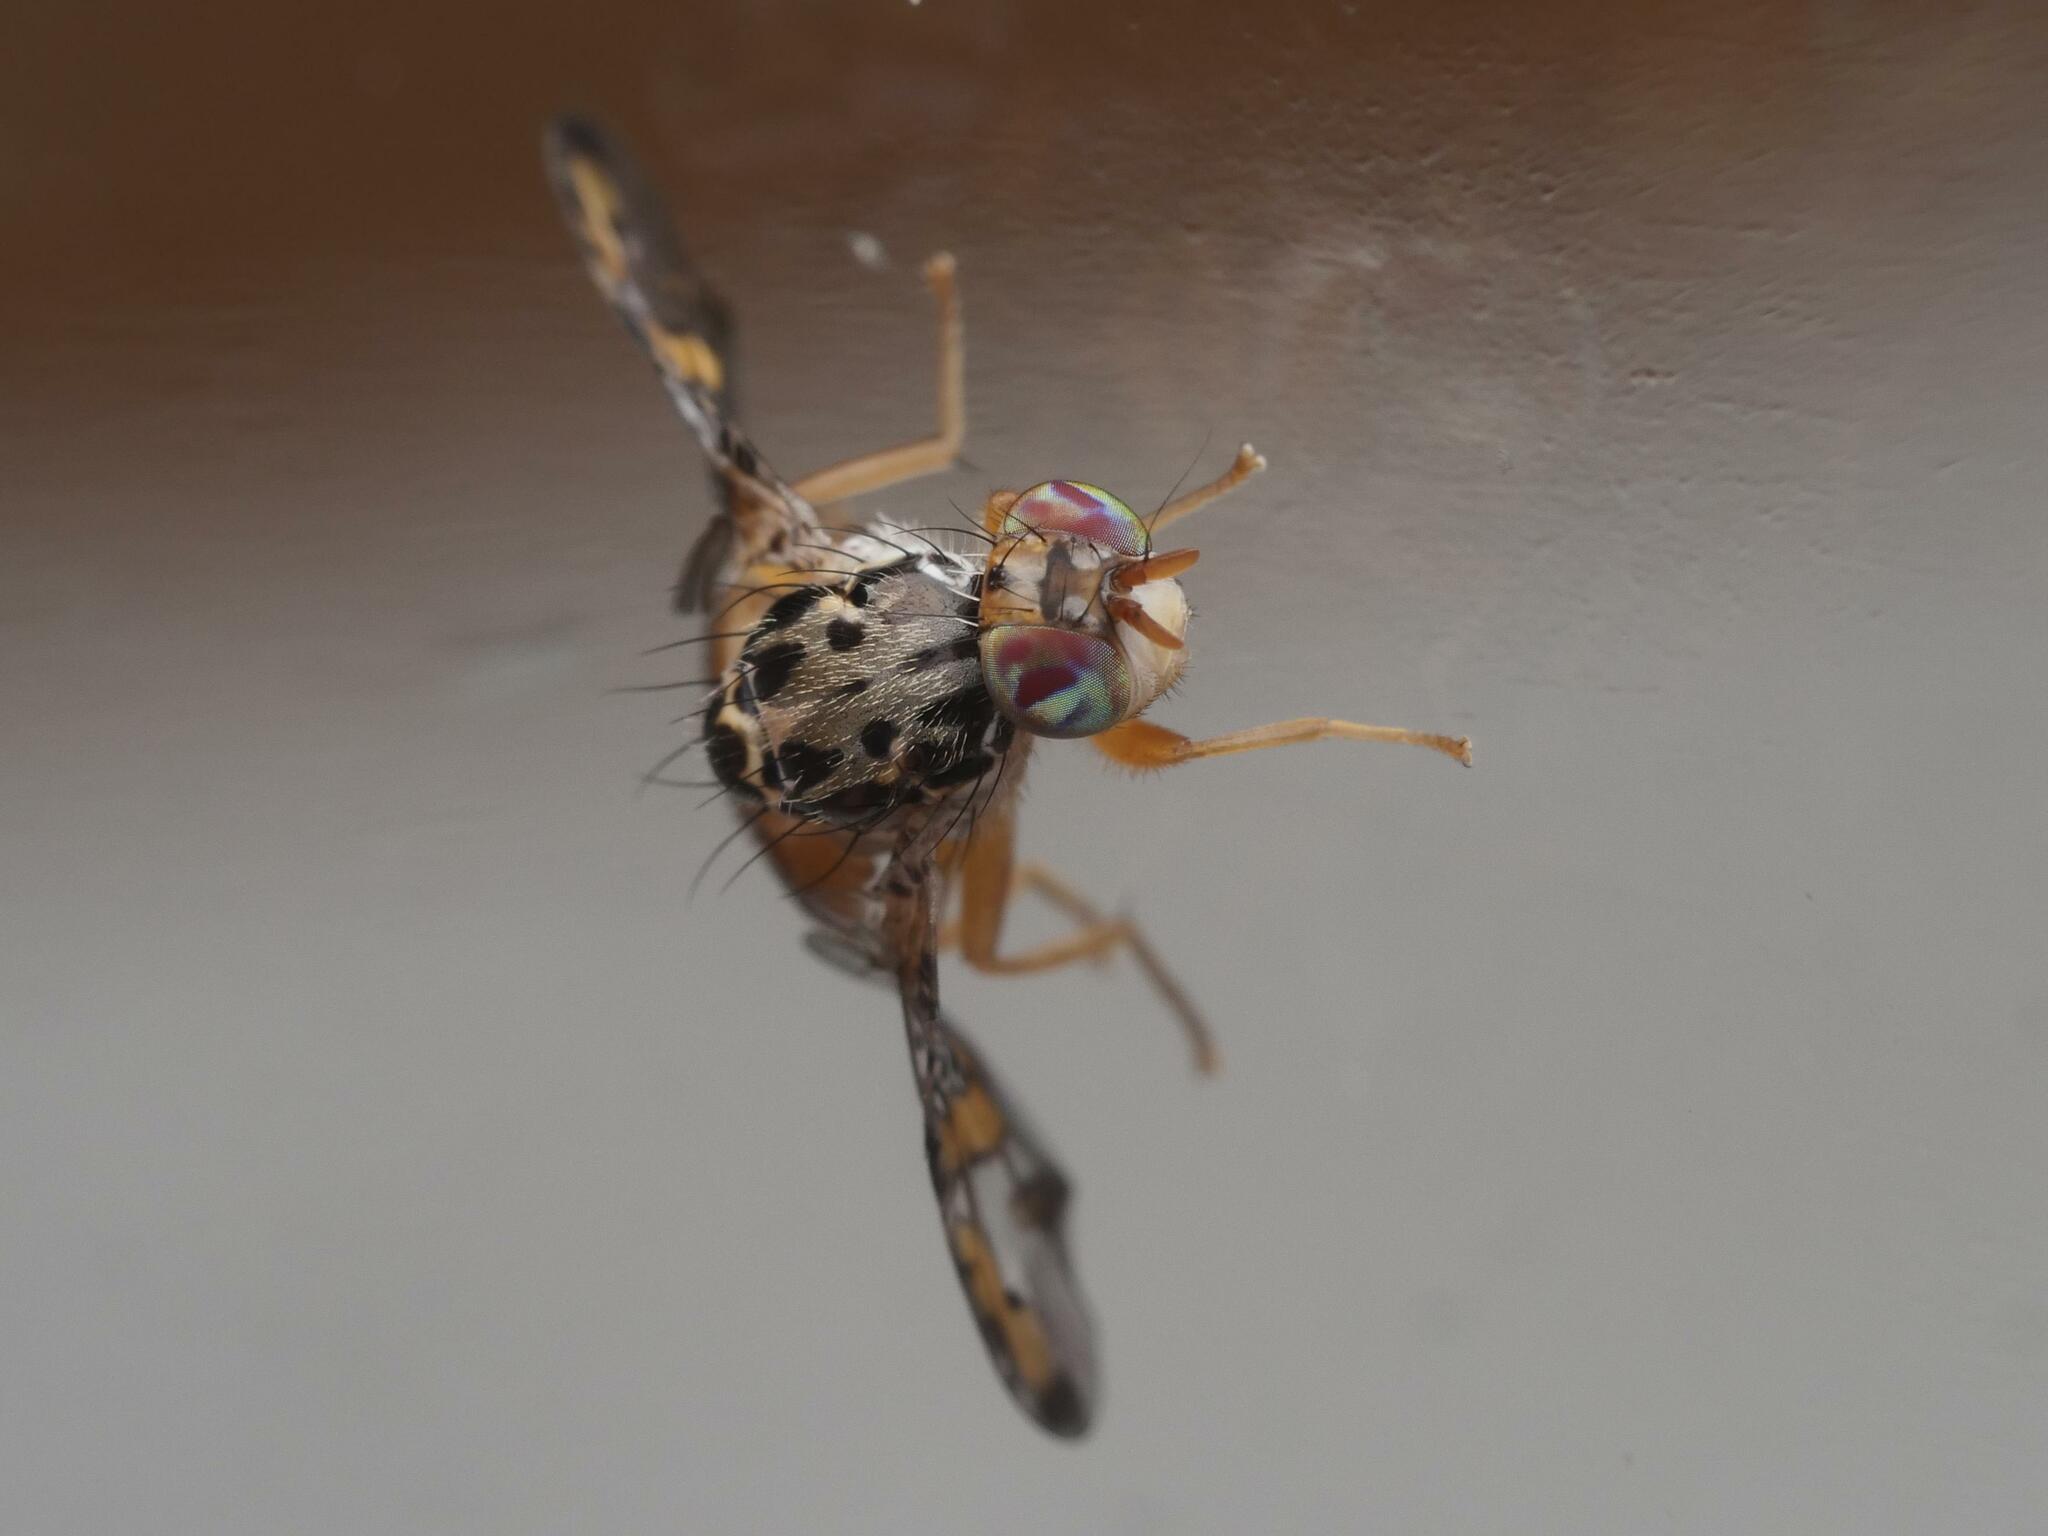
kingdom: Animalia
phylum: Arthropoda
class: Insecta
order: Diptera
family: Tephritidae
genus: Ceratitis
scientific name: Ceratitis capitata
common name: Mediterranean fruit fly
